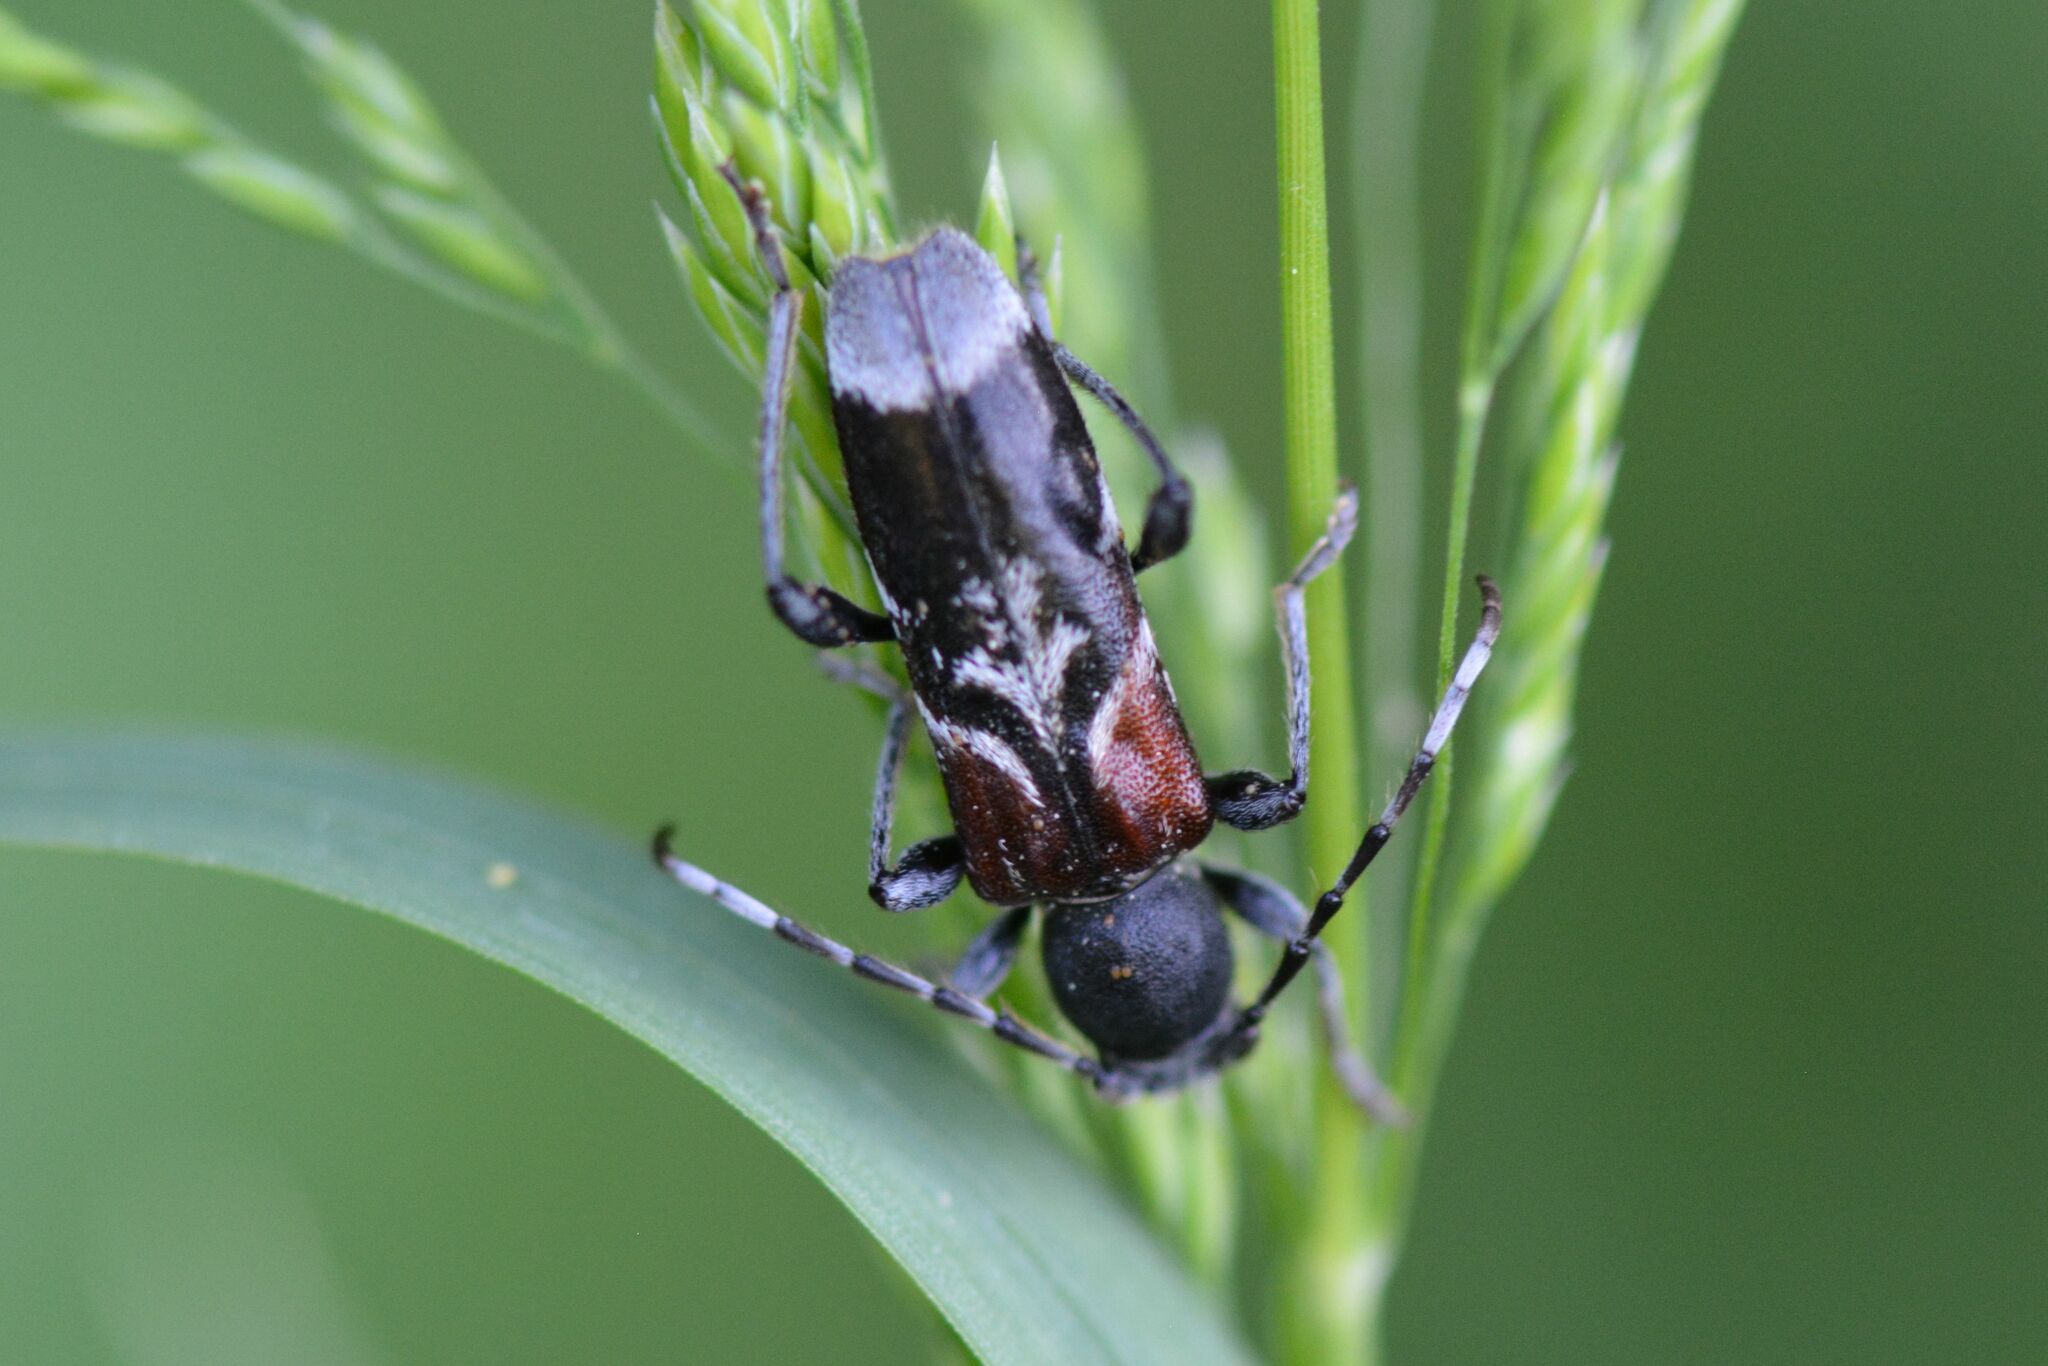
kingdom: Animalia
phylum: Arthropoda
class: Insecta
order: Coleoptera
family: Cerambycidae
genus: Anaglyptus
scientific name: Anaglyptus mysticus
